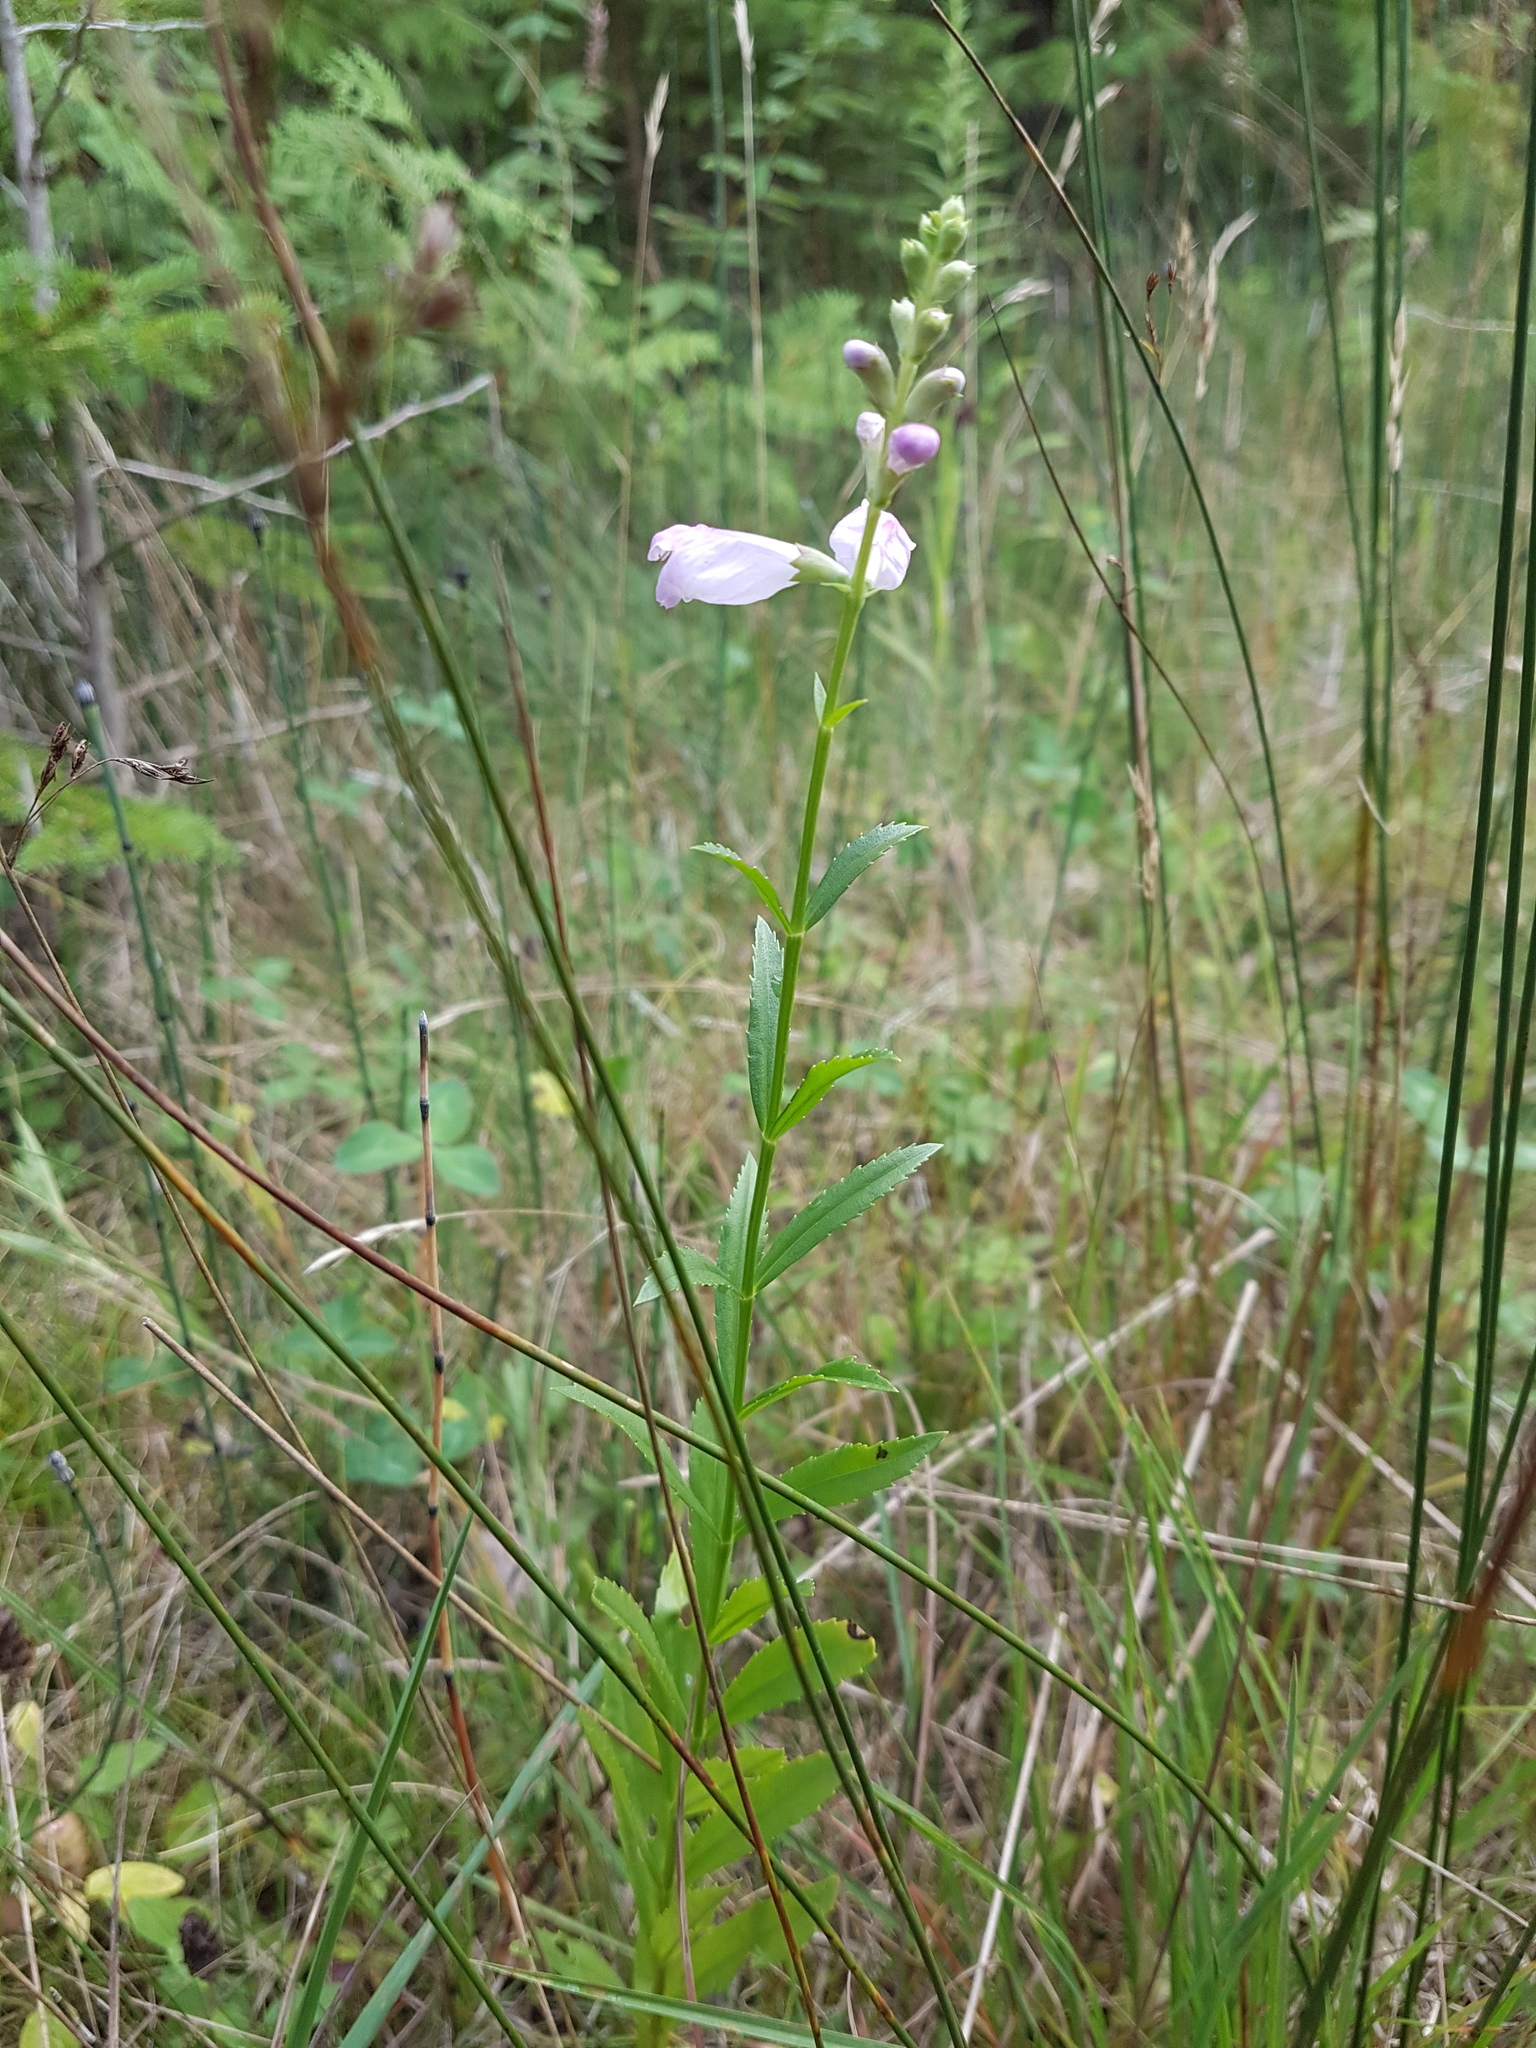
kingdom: Plantae
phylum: Tracheophyta
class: Magnoliopsida
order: Lamiales
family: Lamiaceae
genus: Physostegia
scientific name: Physostegia virginiana
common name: Obedient-plant
